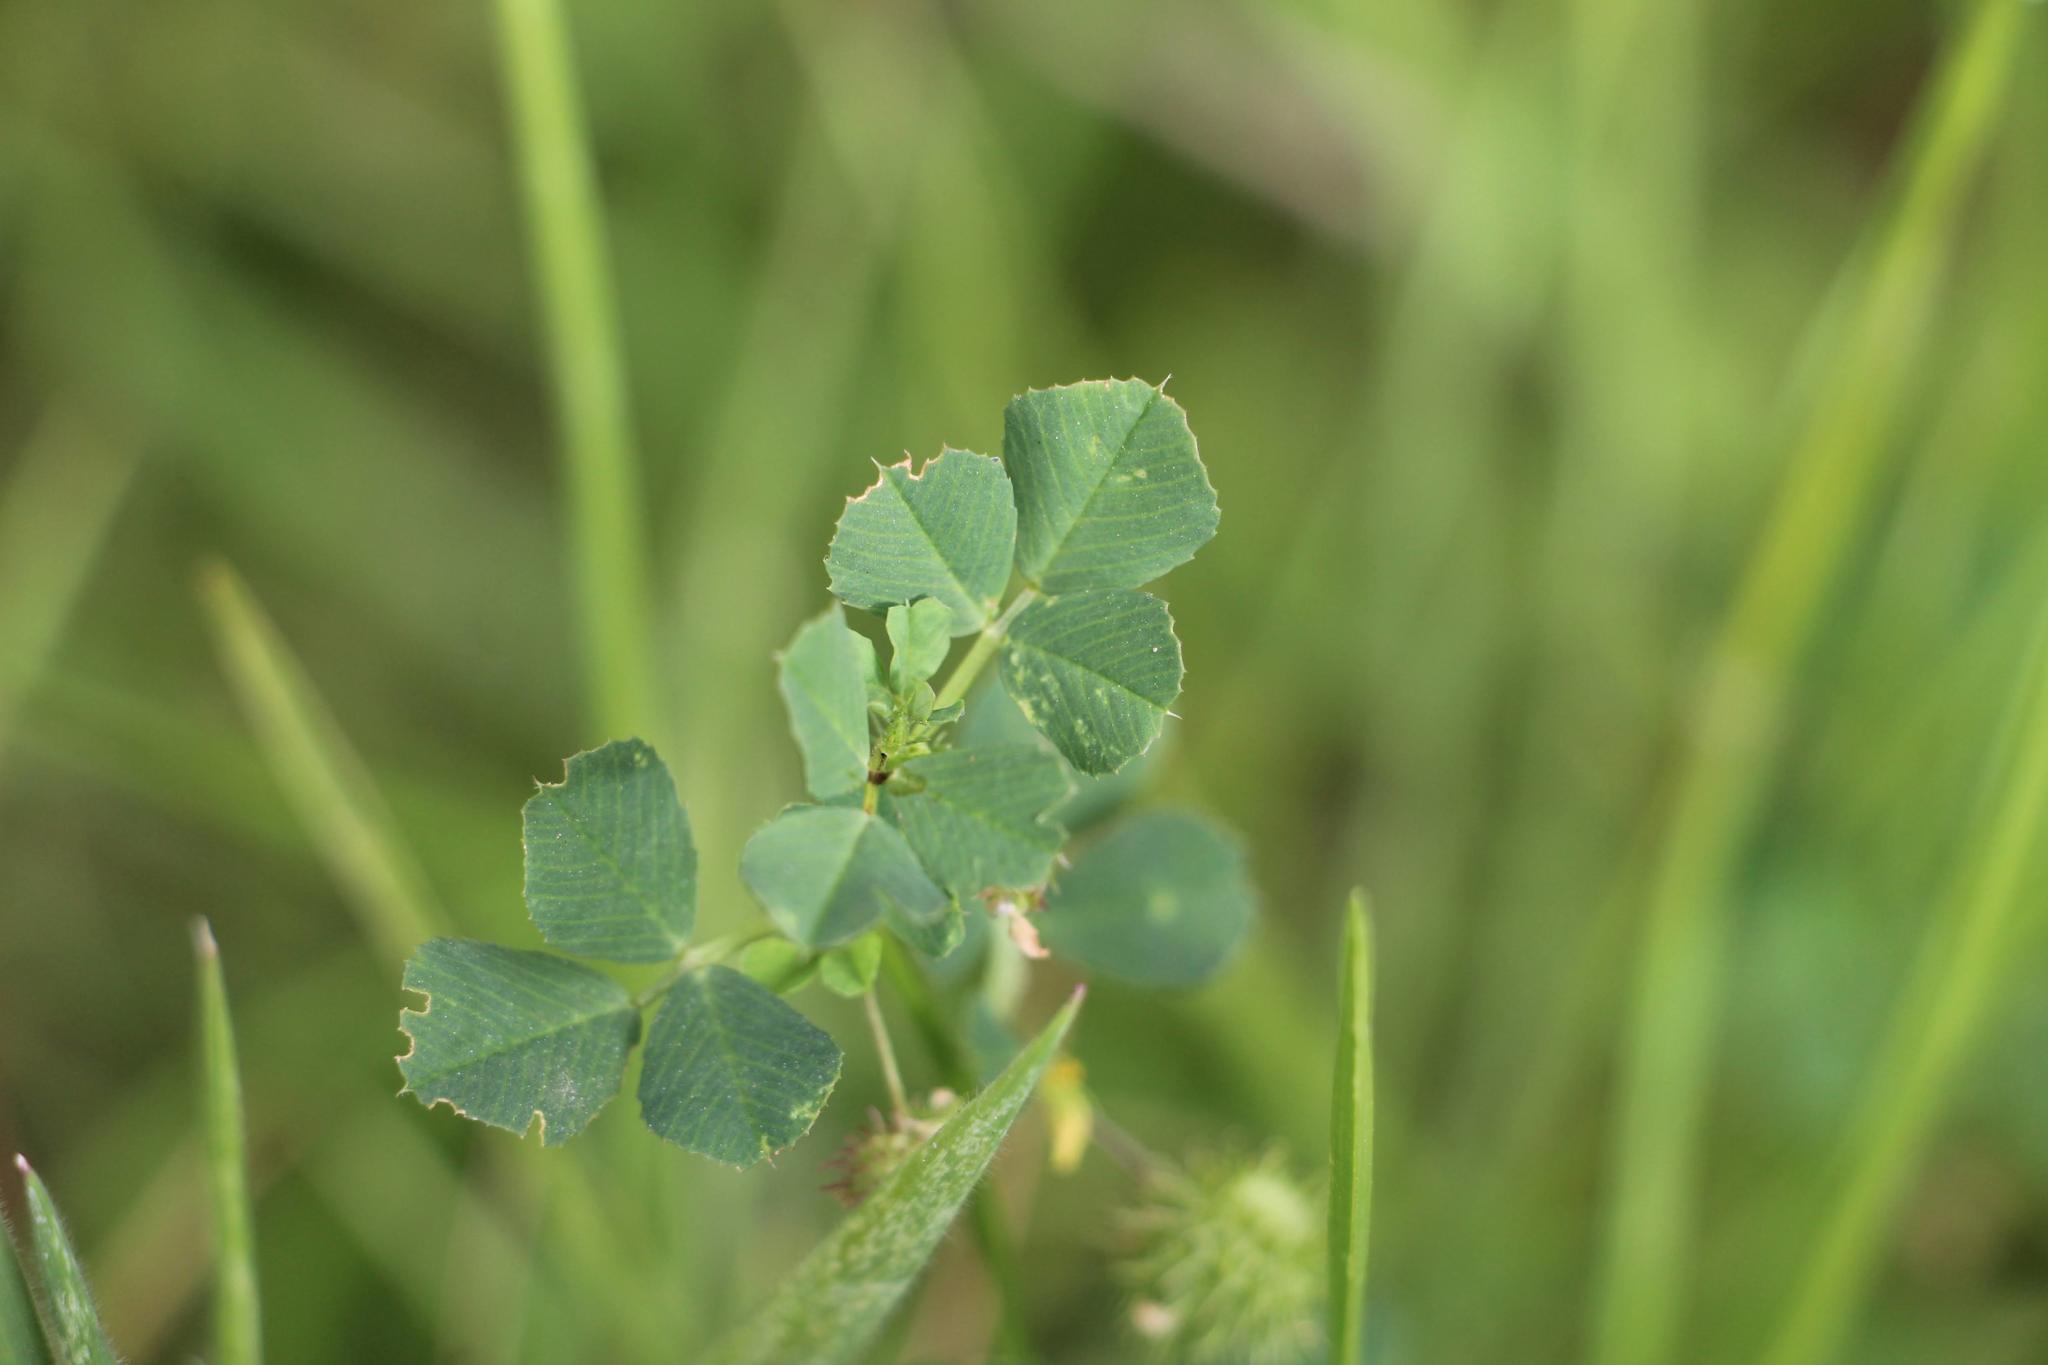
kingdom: Plantae
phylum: Tracheophyta
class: Magnoliopsida
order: Fabales
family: Fabaceae
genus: Medicago
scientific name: Medicago polymorpha
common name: Burclover
